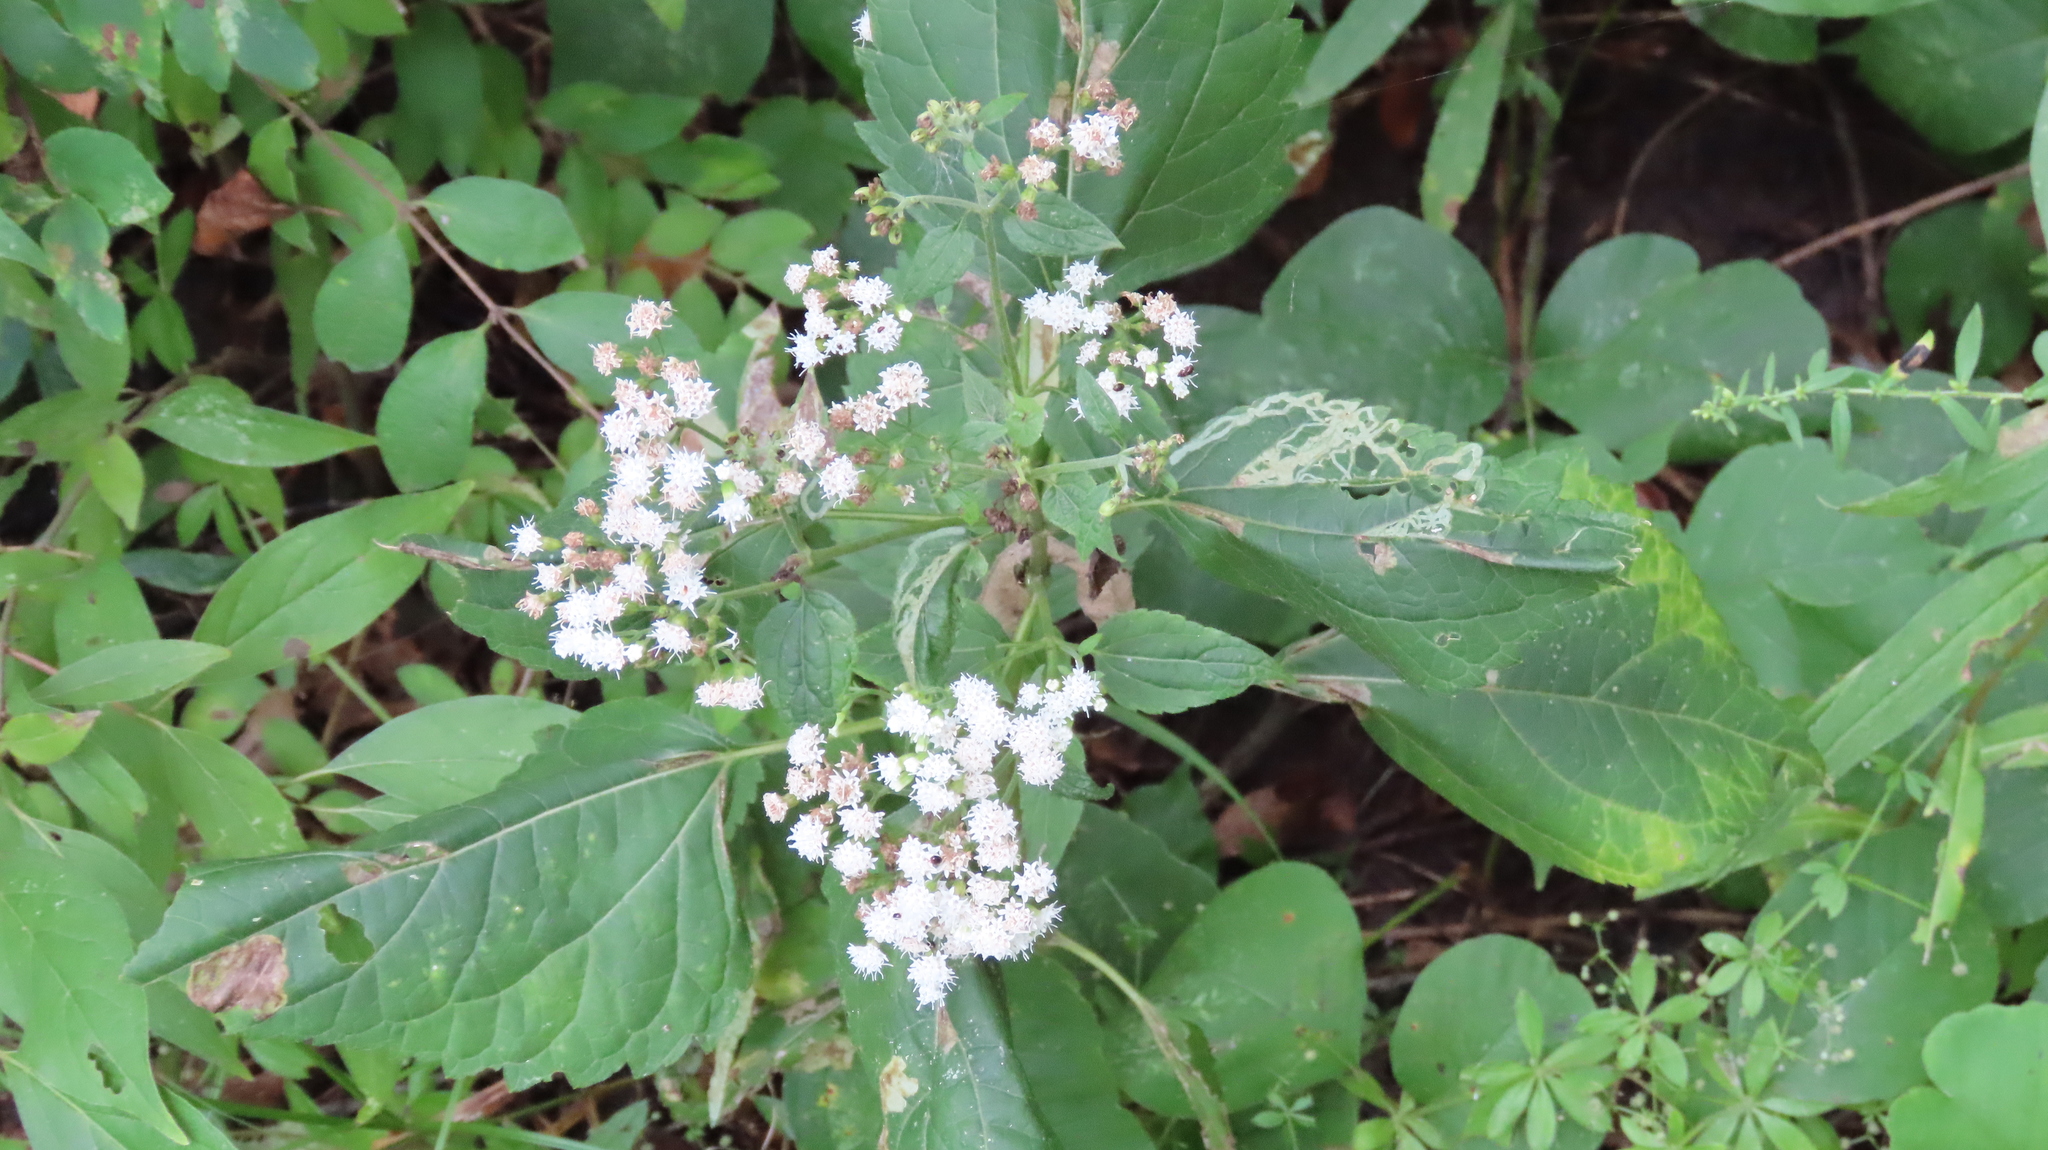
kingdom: Plantae
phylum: Tracheophyta
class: Magnoliopsida
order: Asterales
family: Asteraceae
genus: Ageratina
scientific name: Ageratina altissima
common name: White snakeroot
